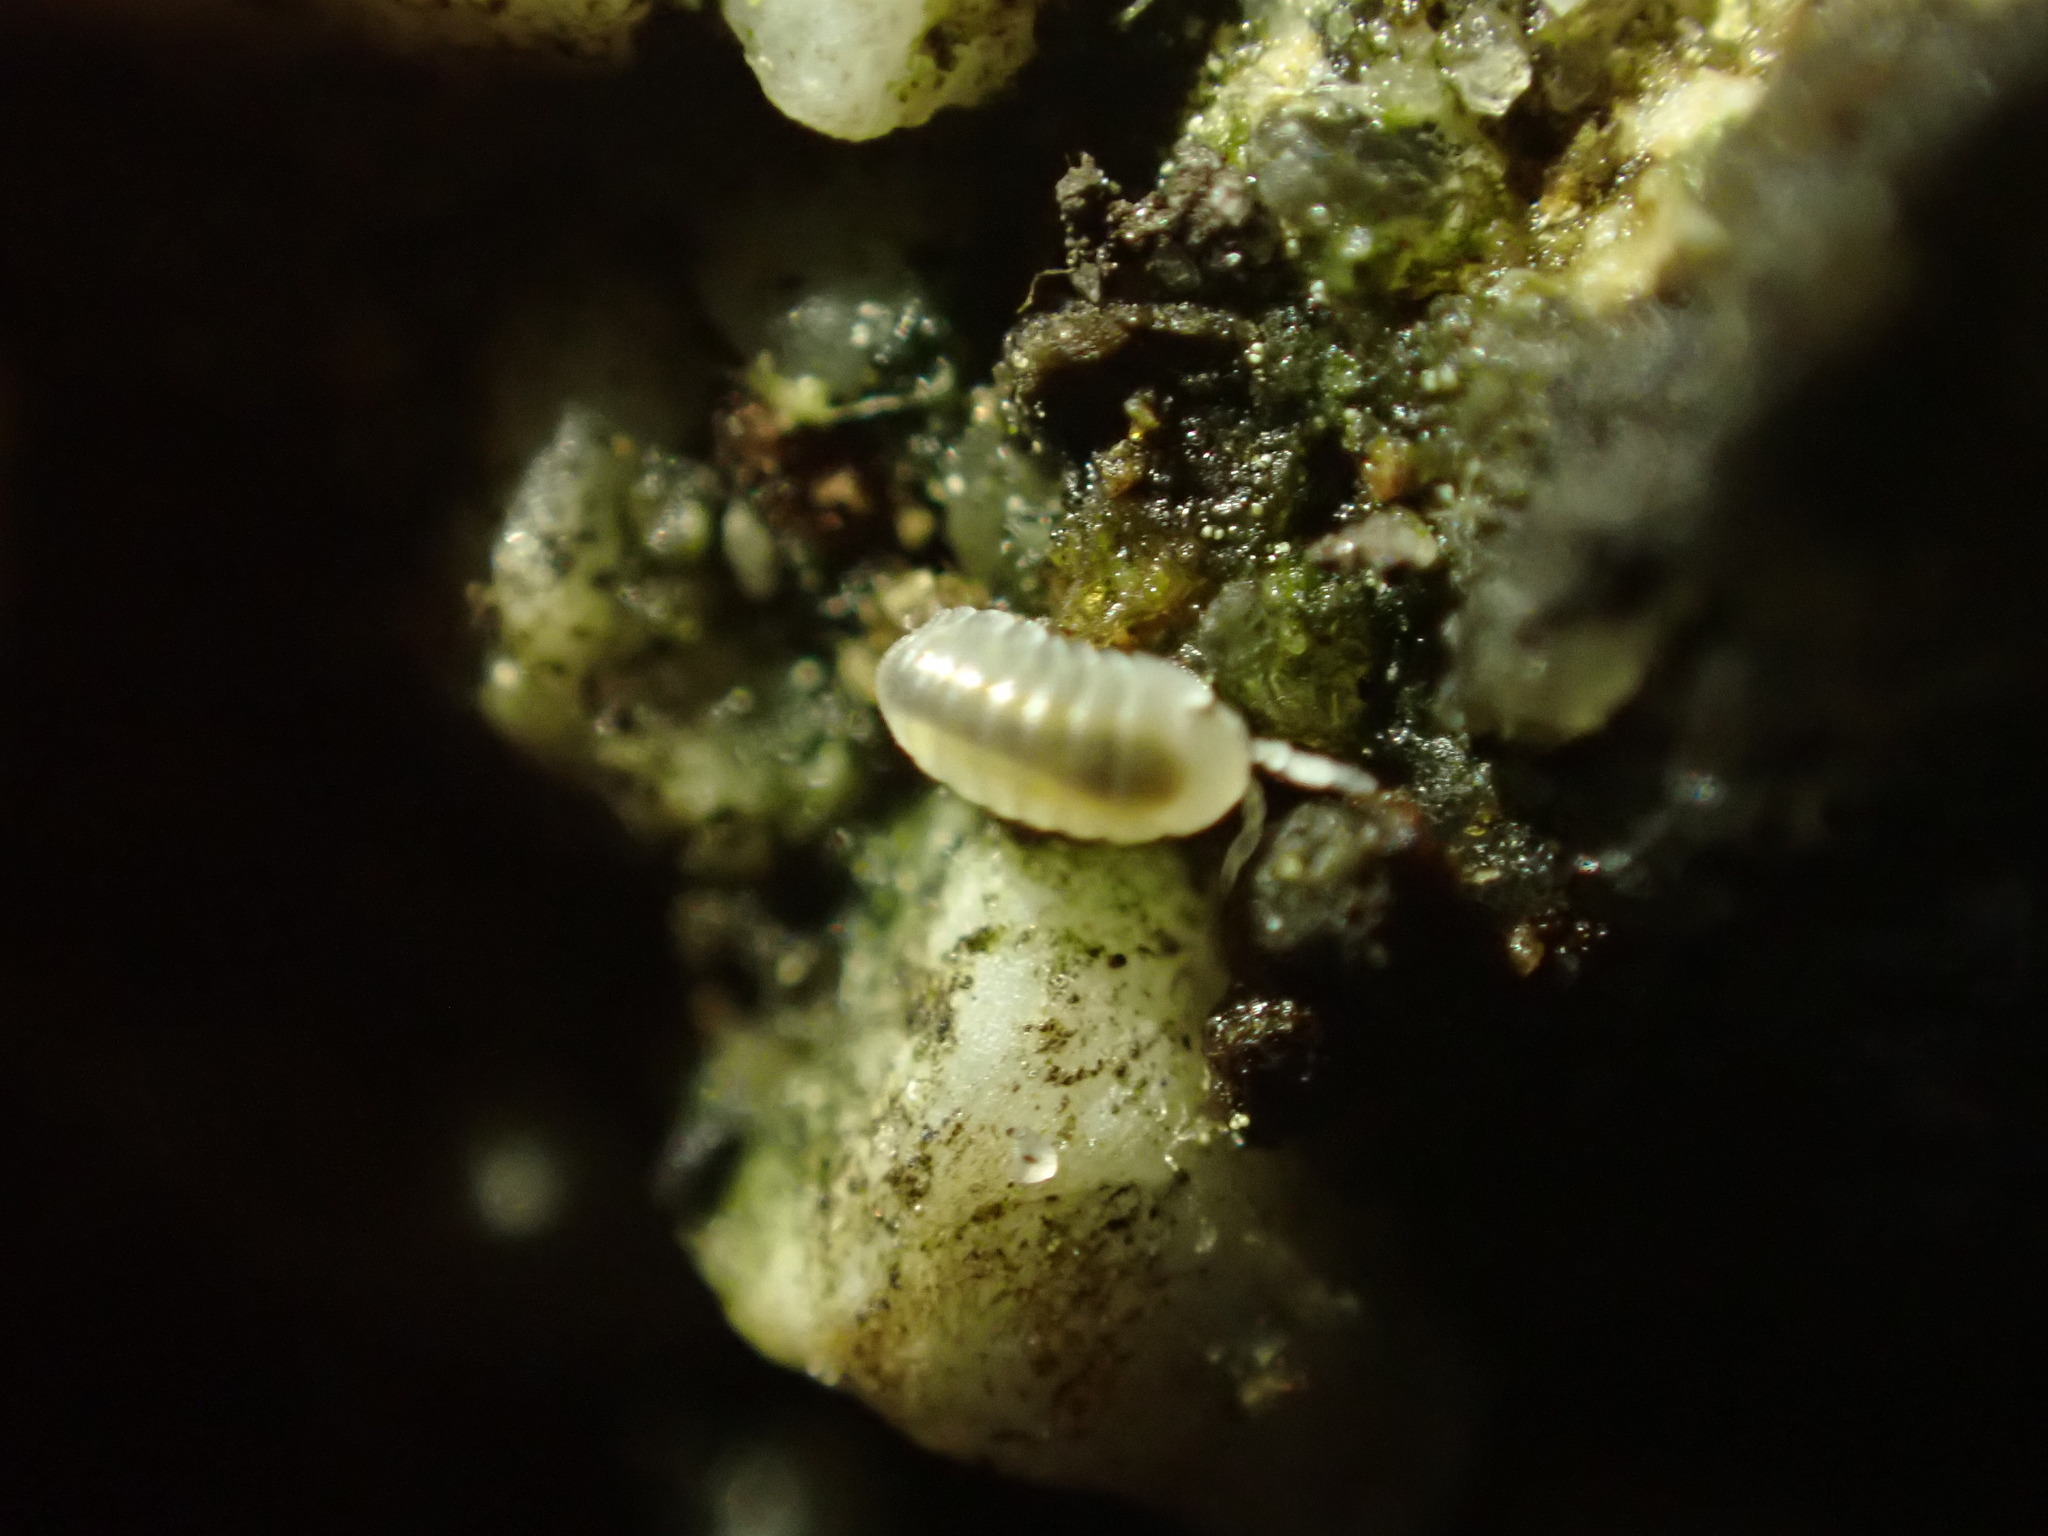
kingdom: Animalia
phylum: Arthropoda
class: Malacostraca
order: Isopoda
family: Armadillidiidae
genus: Armadillidium
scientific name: Armadillidium vulgare
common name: Common pill woodlouse
